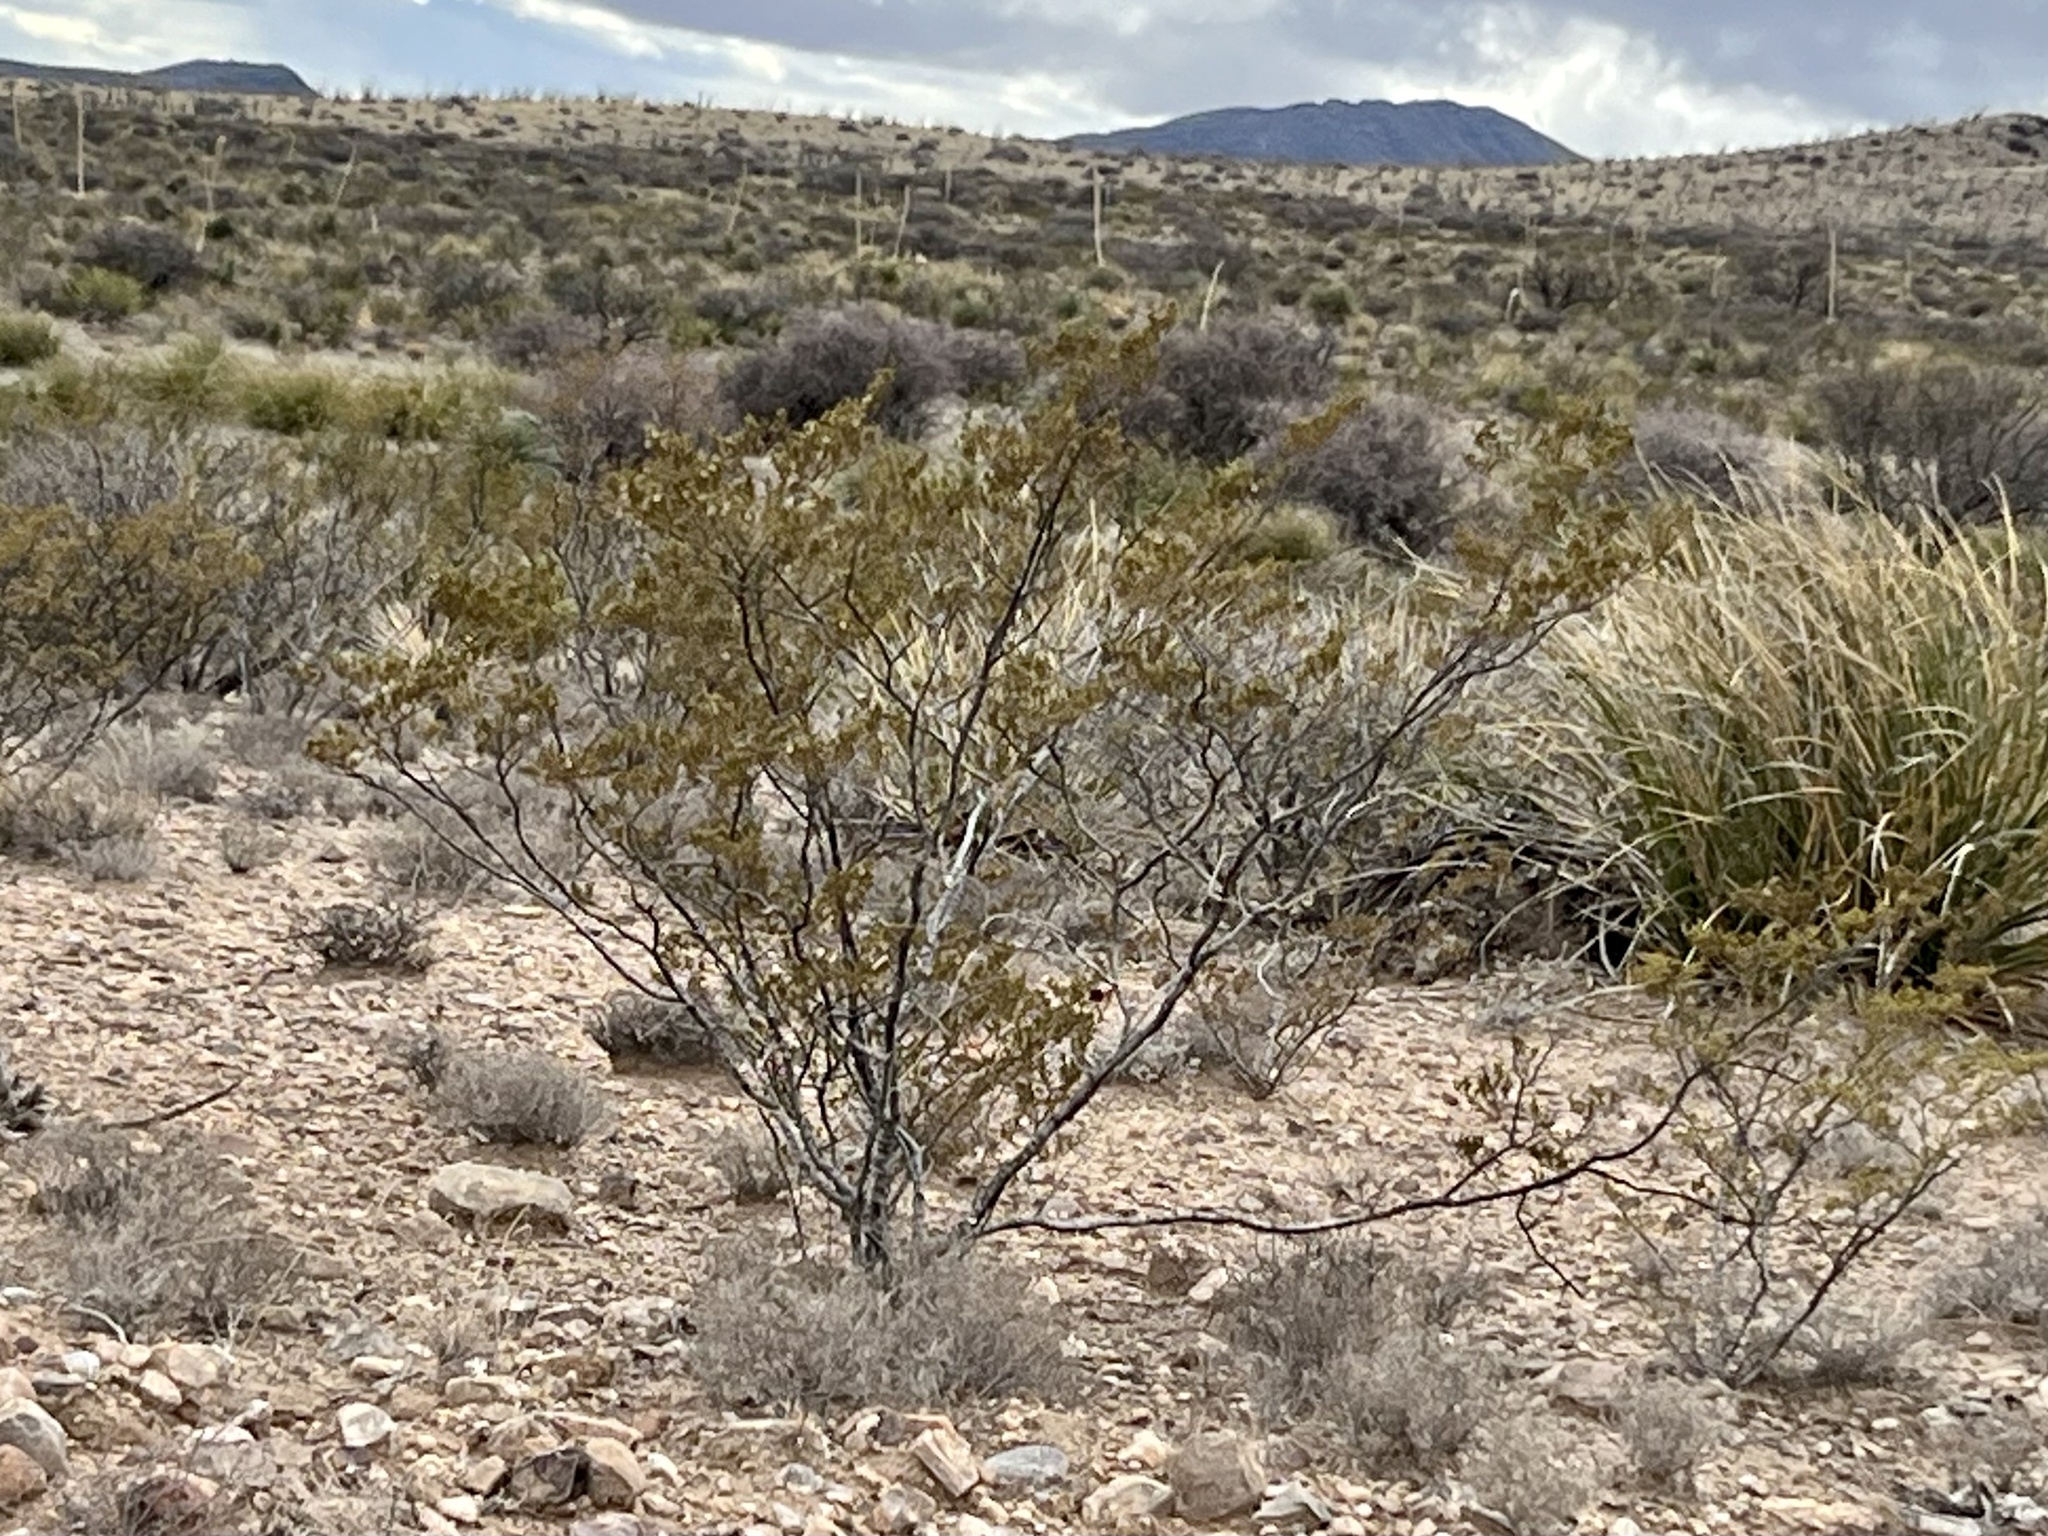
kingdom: Plantae
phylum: Tracheophyta
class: Magnoliopsida
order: Zygophyllales
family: Zygophyllaceae
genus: Larrea
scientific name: Larrea tridentata
